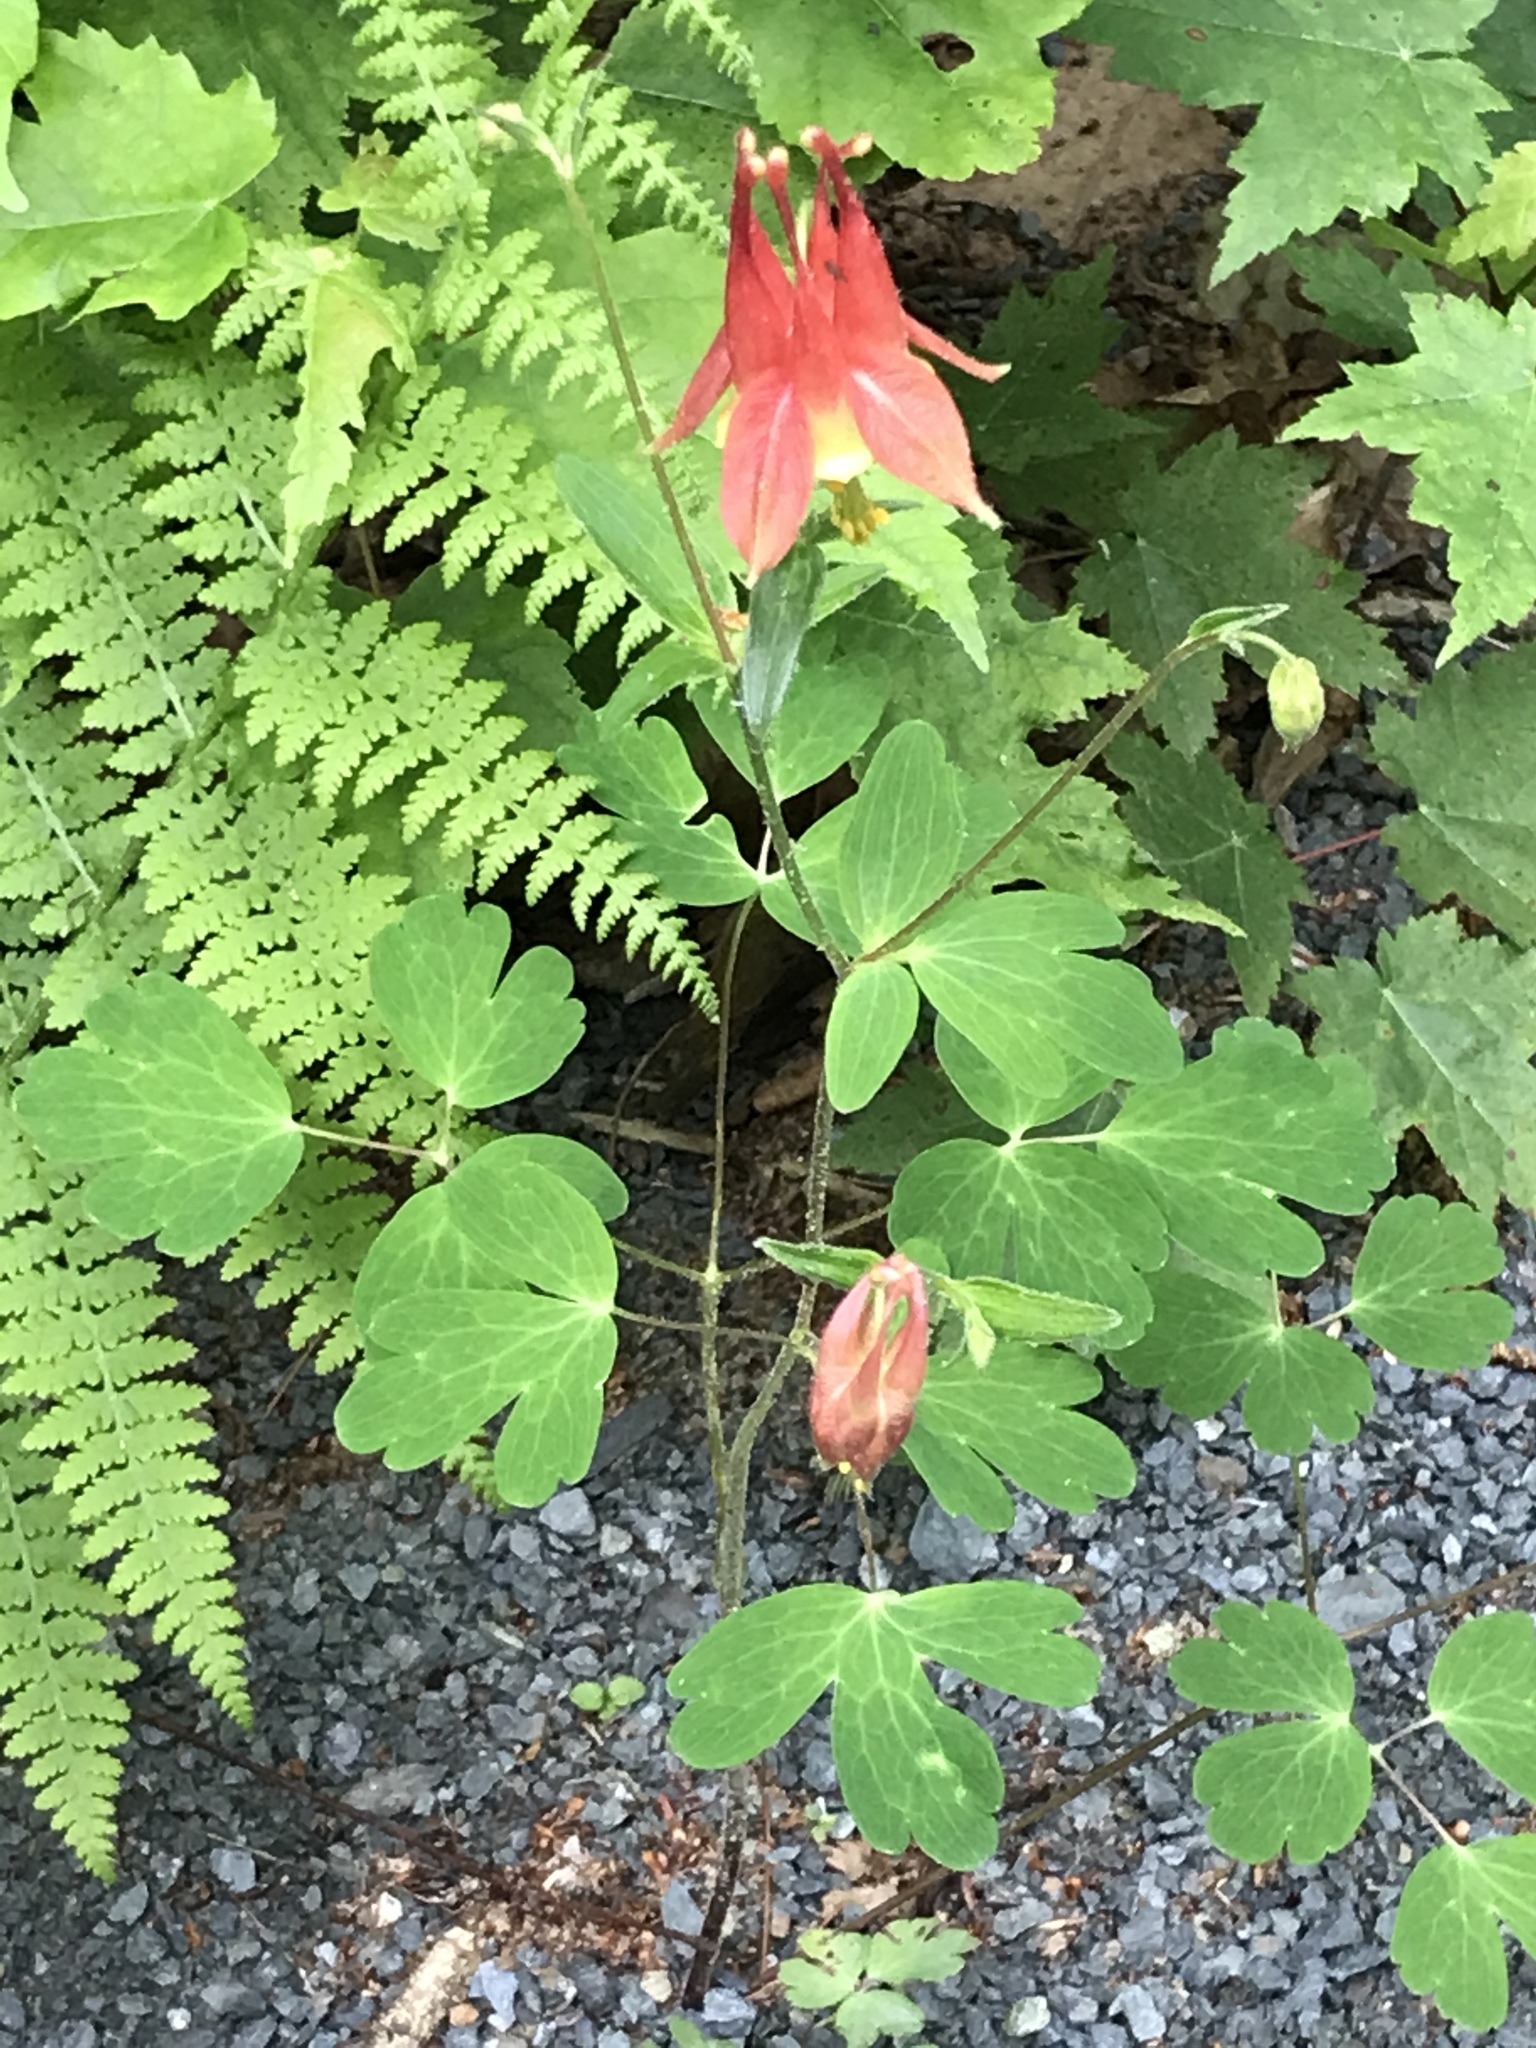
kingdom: Plantae
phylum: Tracheophyta
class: Magnoliopsida
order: Ranunculales
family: Ranunculaceae
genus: Aquilegia
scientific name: Aquilegia canadensis
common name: American columbine
